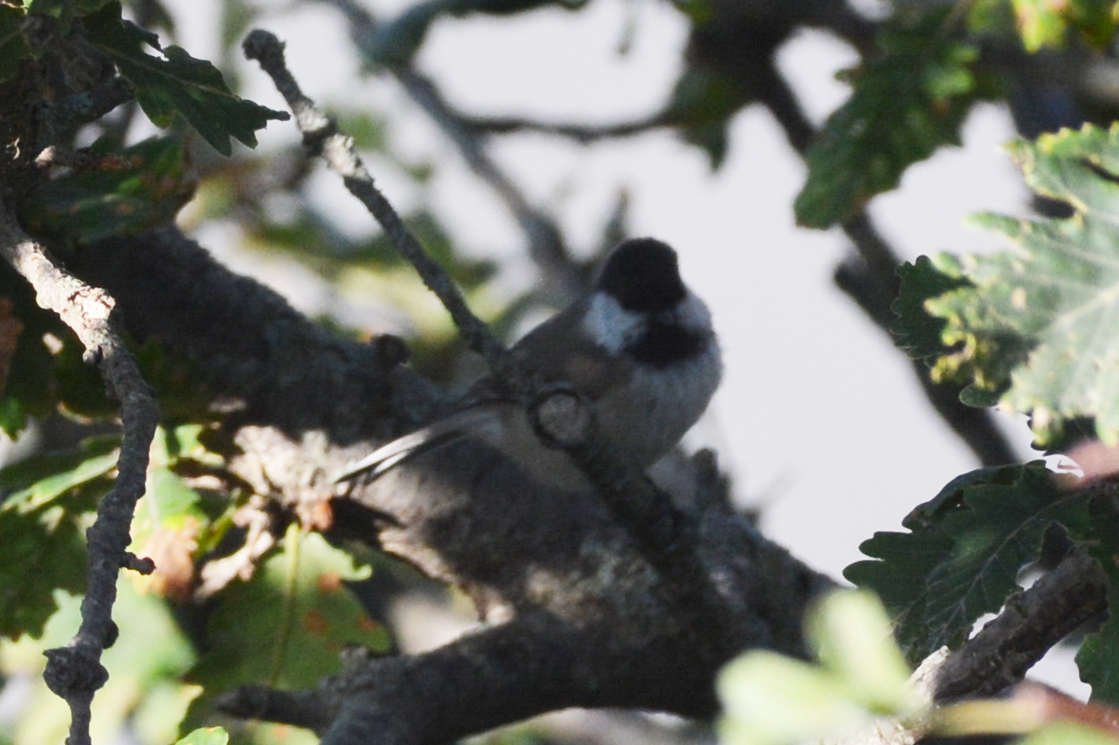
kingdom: Animalia
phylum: Chordata
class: Aves
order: Passeriformes
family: Paridae
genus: Poecile
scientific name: Poecile hyrcanus
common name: Caspian tit
